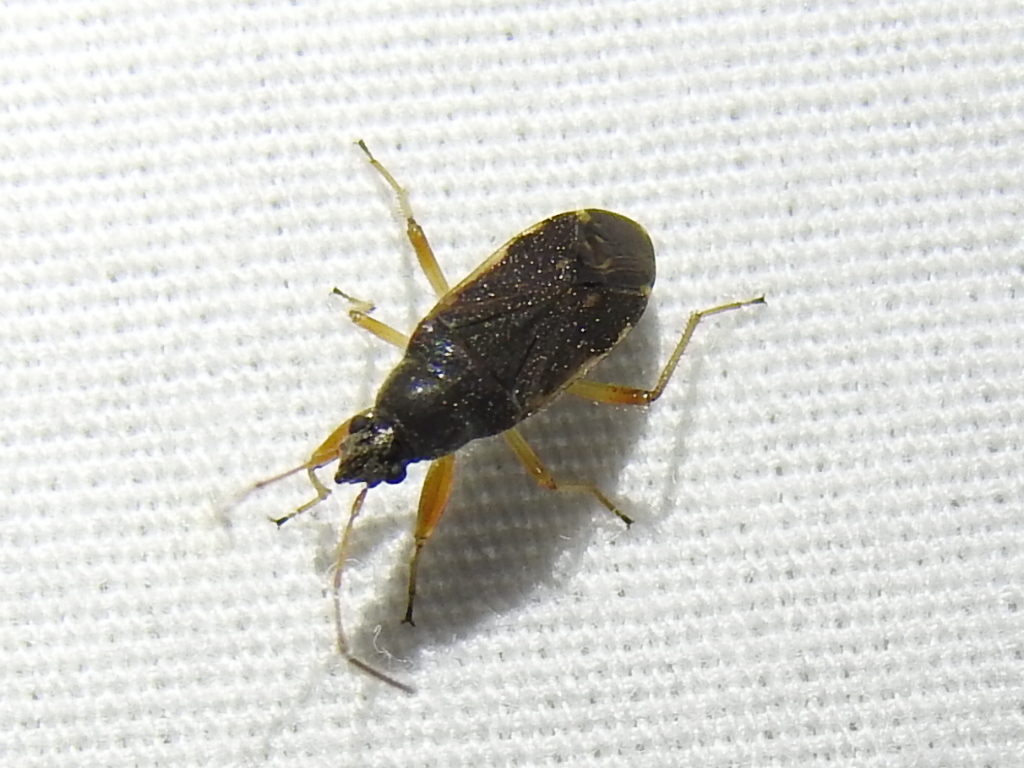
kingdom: Animalia
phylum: Arthropoda
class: Insecta
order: Hemiptera
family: Rhyparochromidae
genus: Zeridoneus
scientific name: Zeridoneus knulli
